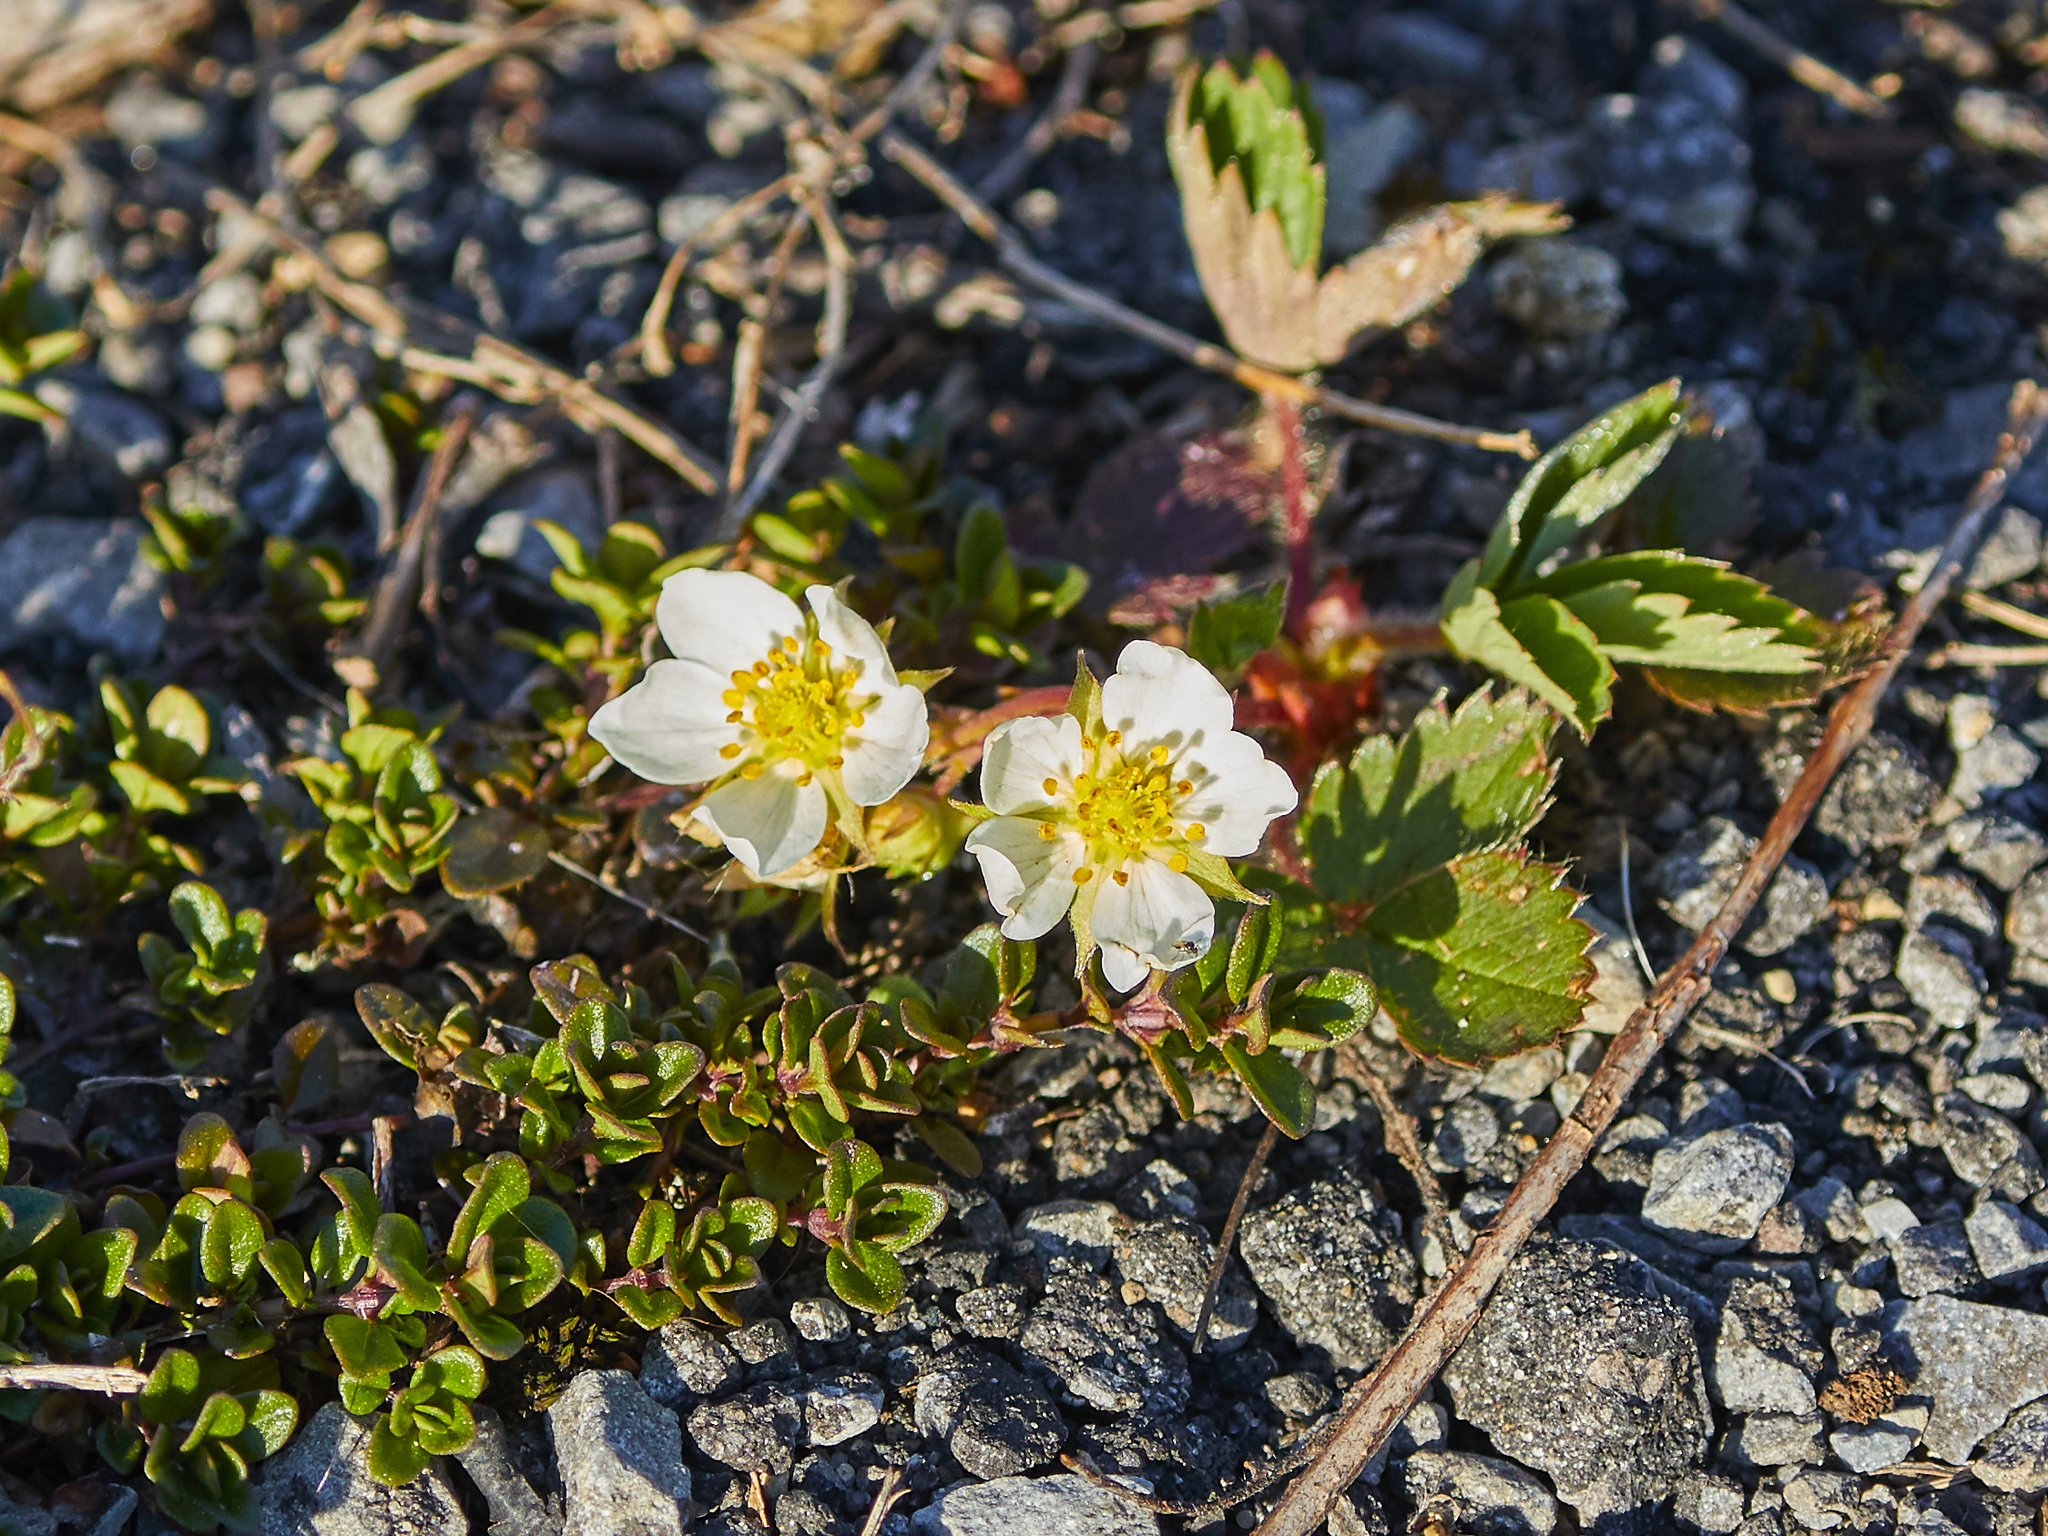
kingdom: Plantae
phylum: Tracheophyta
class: Magnoliopsida
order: Rosales
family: Rosaceae
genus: Fragaria
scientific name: Fragaria virginiana
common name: Thickleaved wild strawberry
